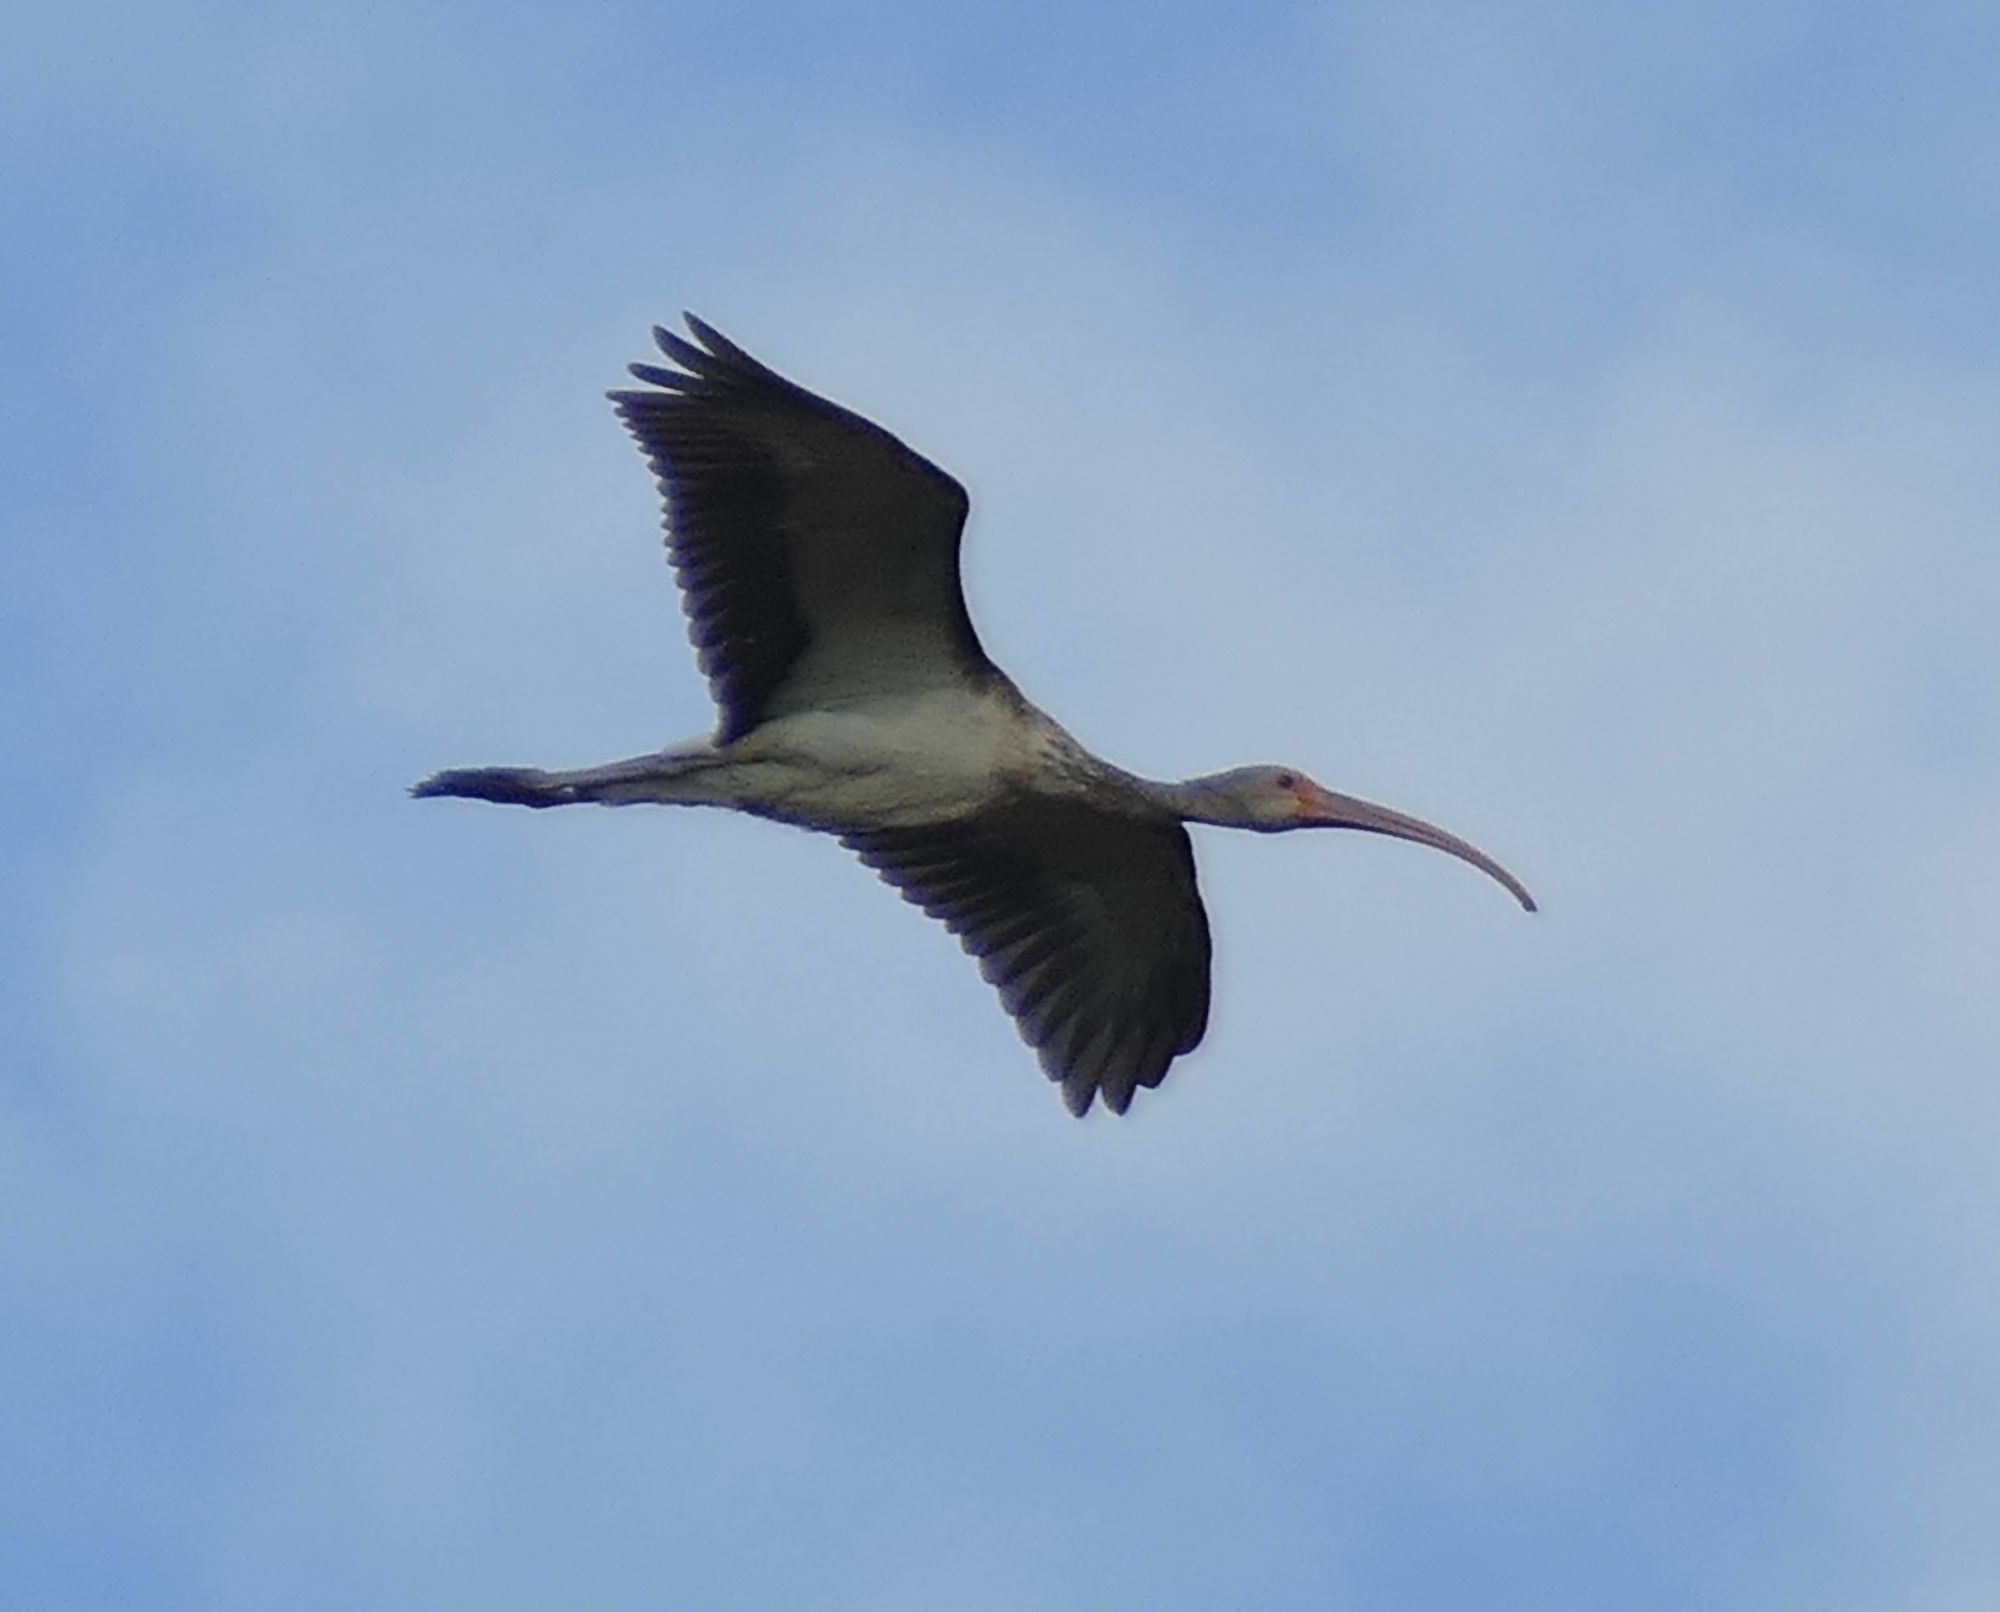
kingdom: Animalia
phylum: Chordata
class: Aves
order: Pelecaniformes
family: Threskiornithidae
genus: Eudocimus
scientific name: Eudocimus albus
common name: White ibis
